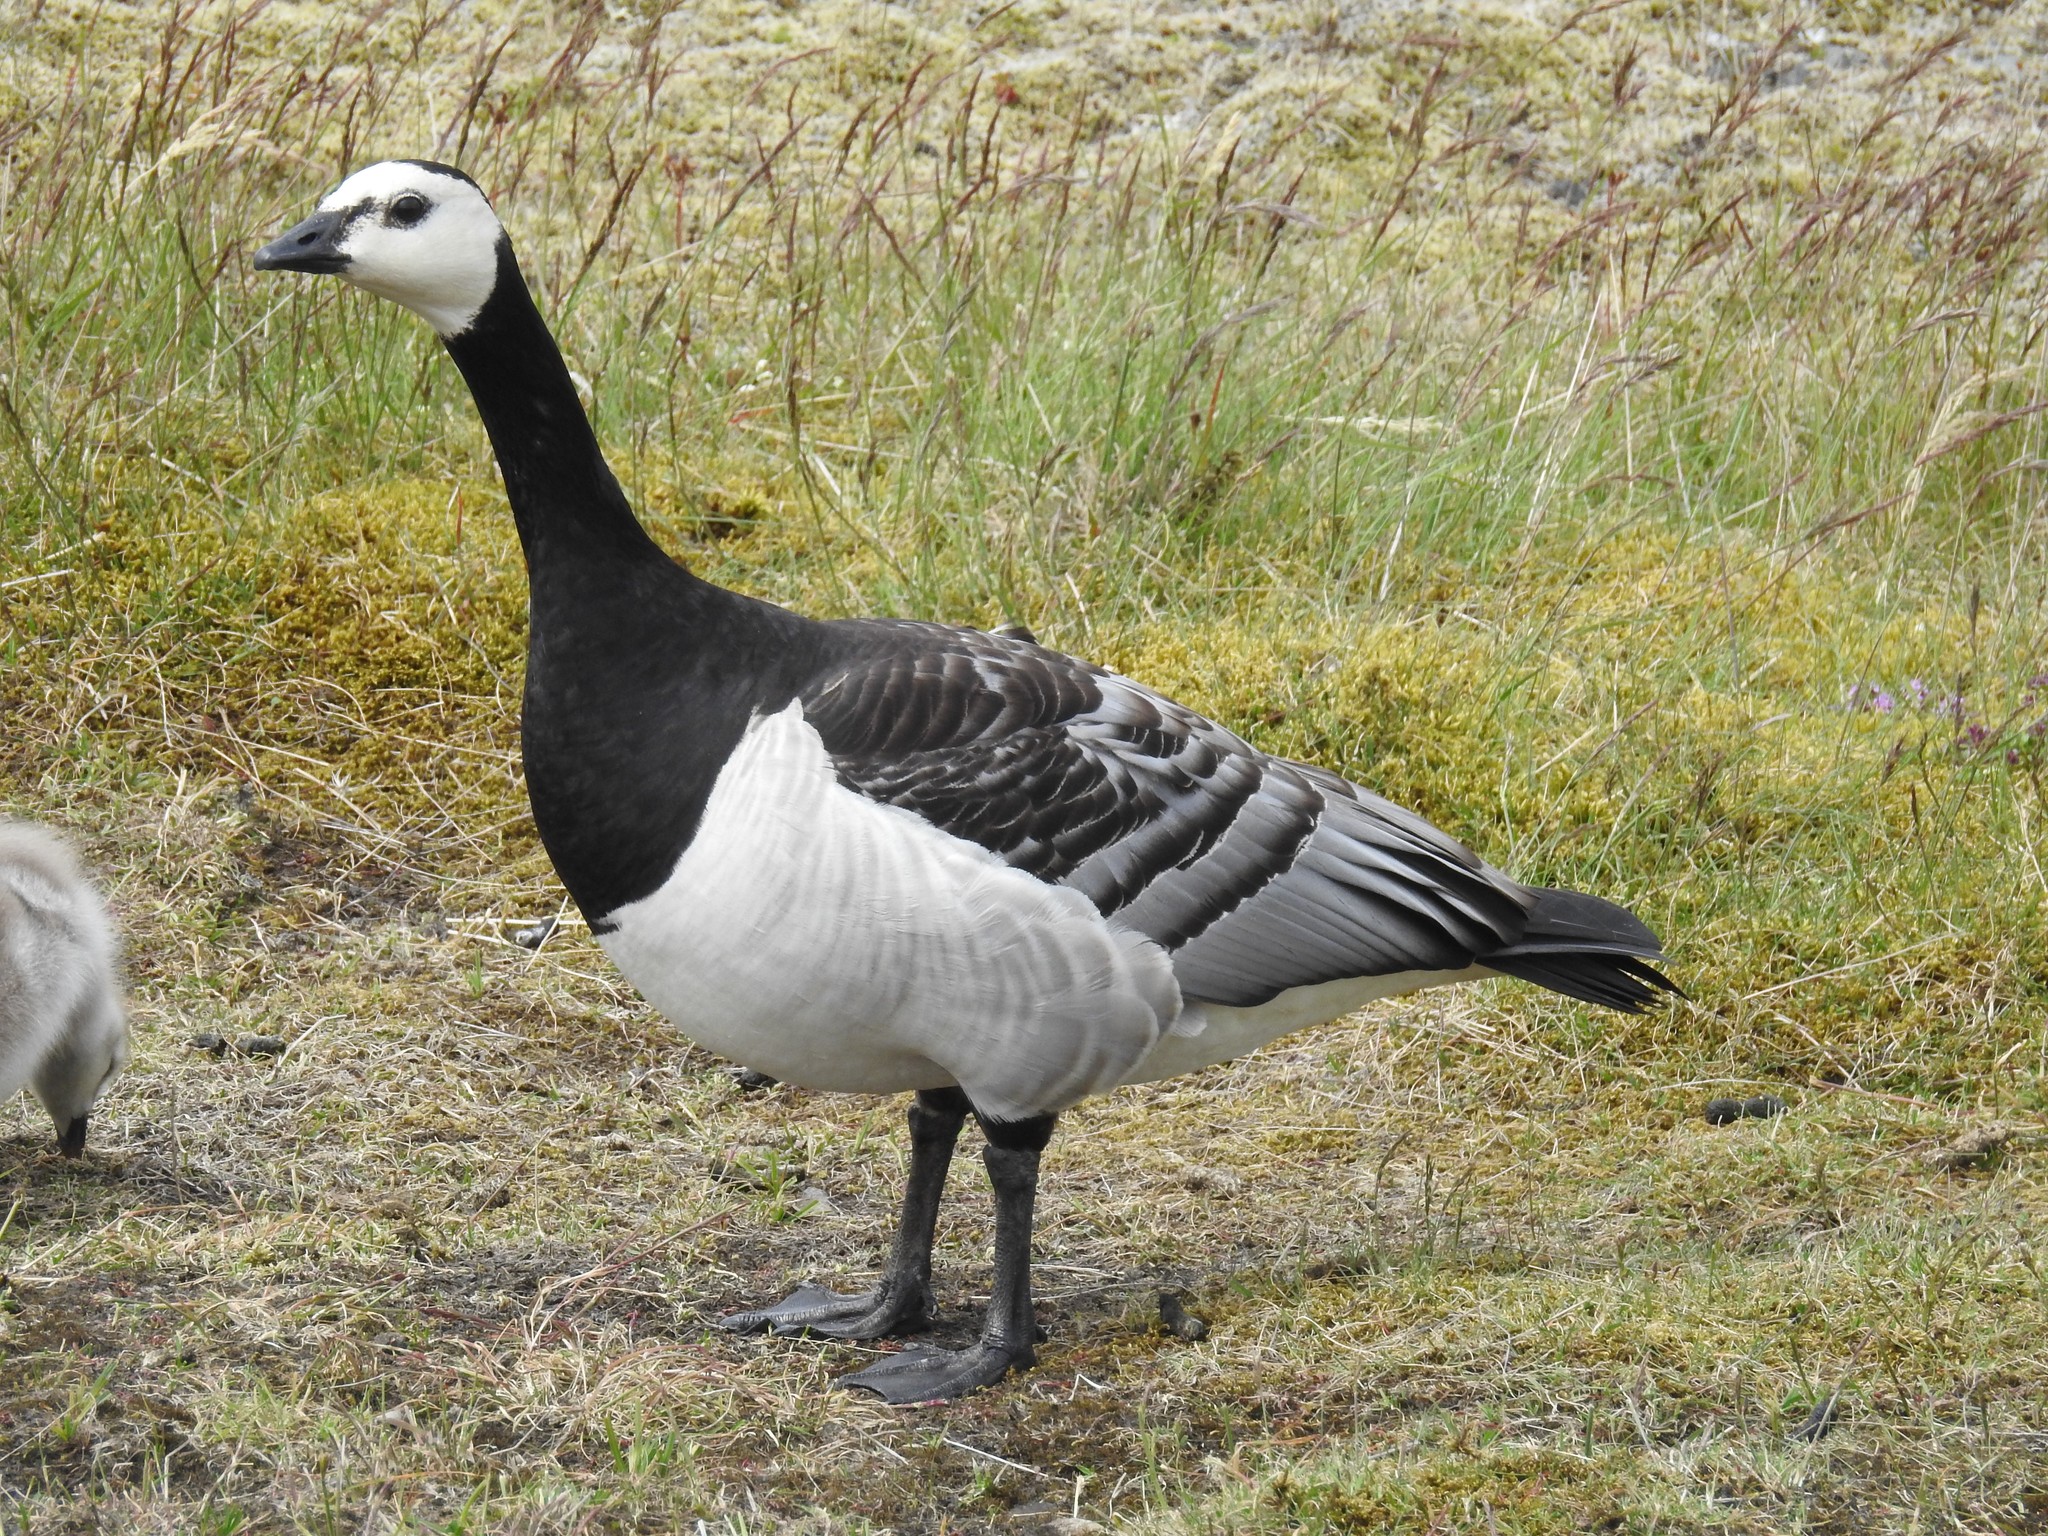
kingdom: Animalia
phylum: Chordata
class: Aves
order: Anseriformes
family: Anatidae
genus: Branta
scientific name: Branta leucopsis
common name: Barnacle goose
